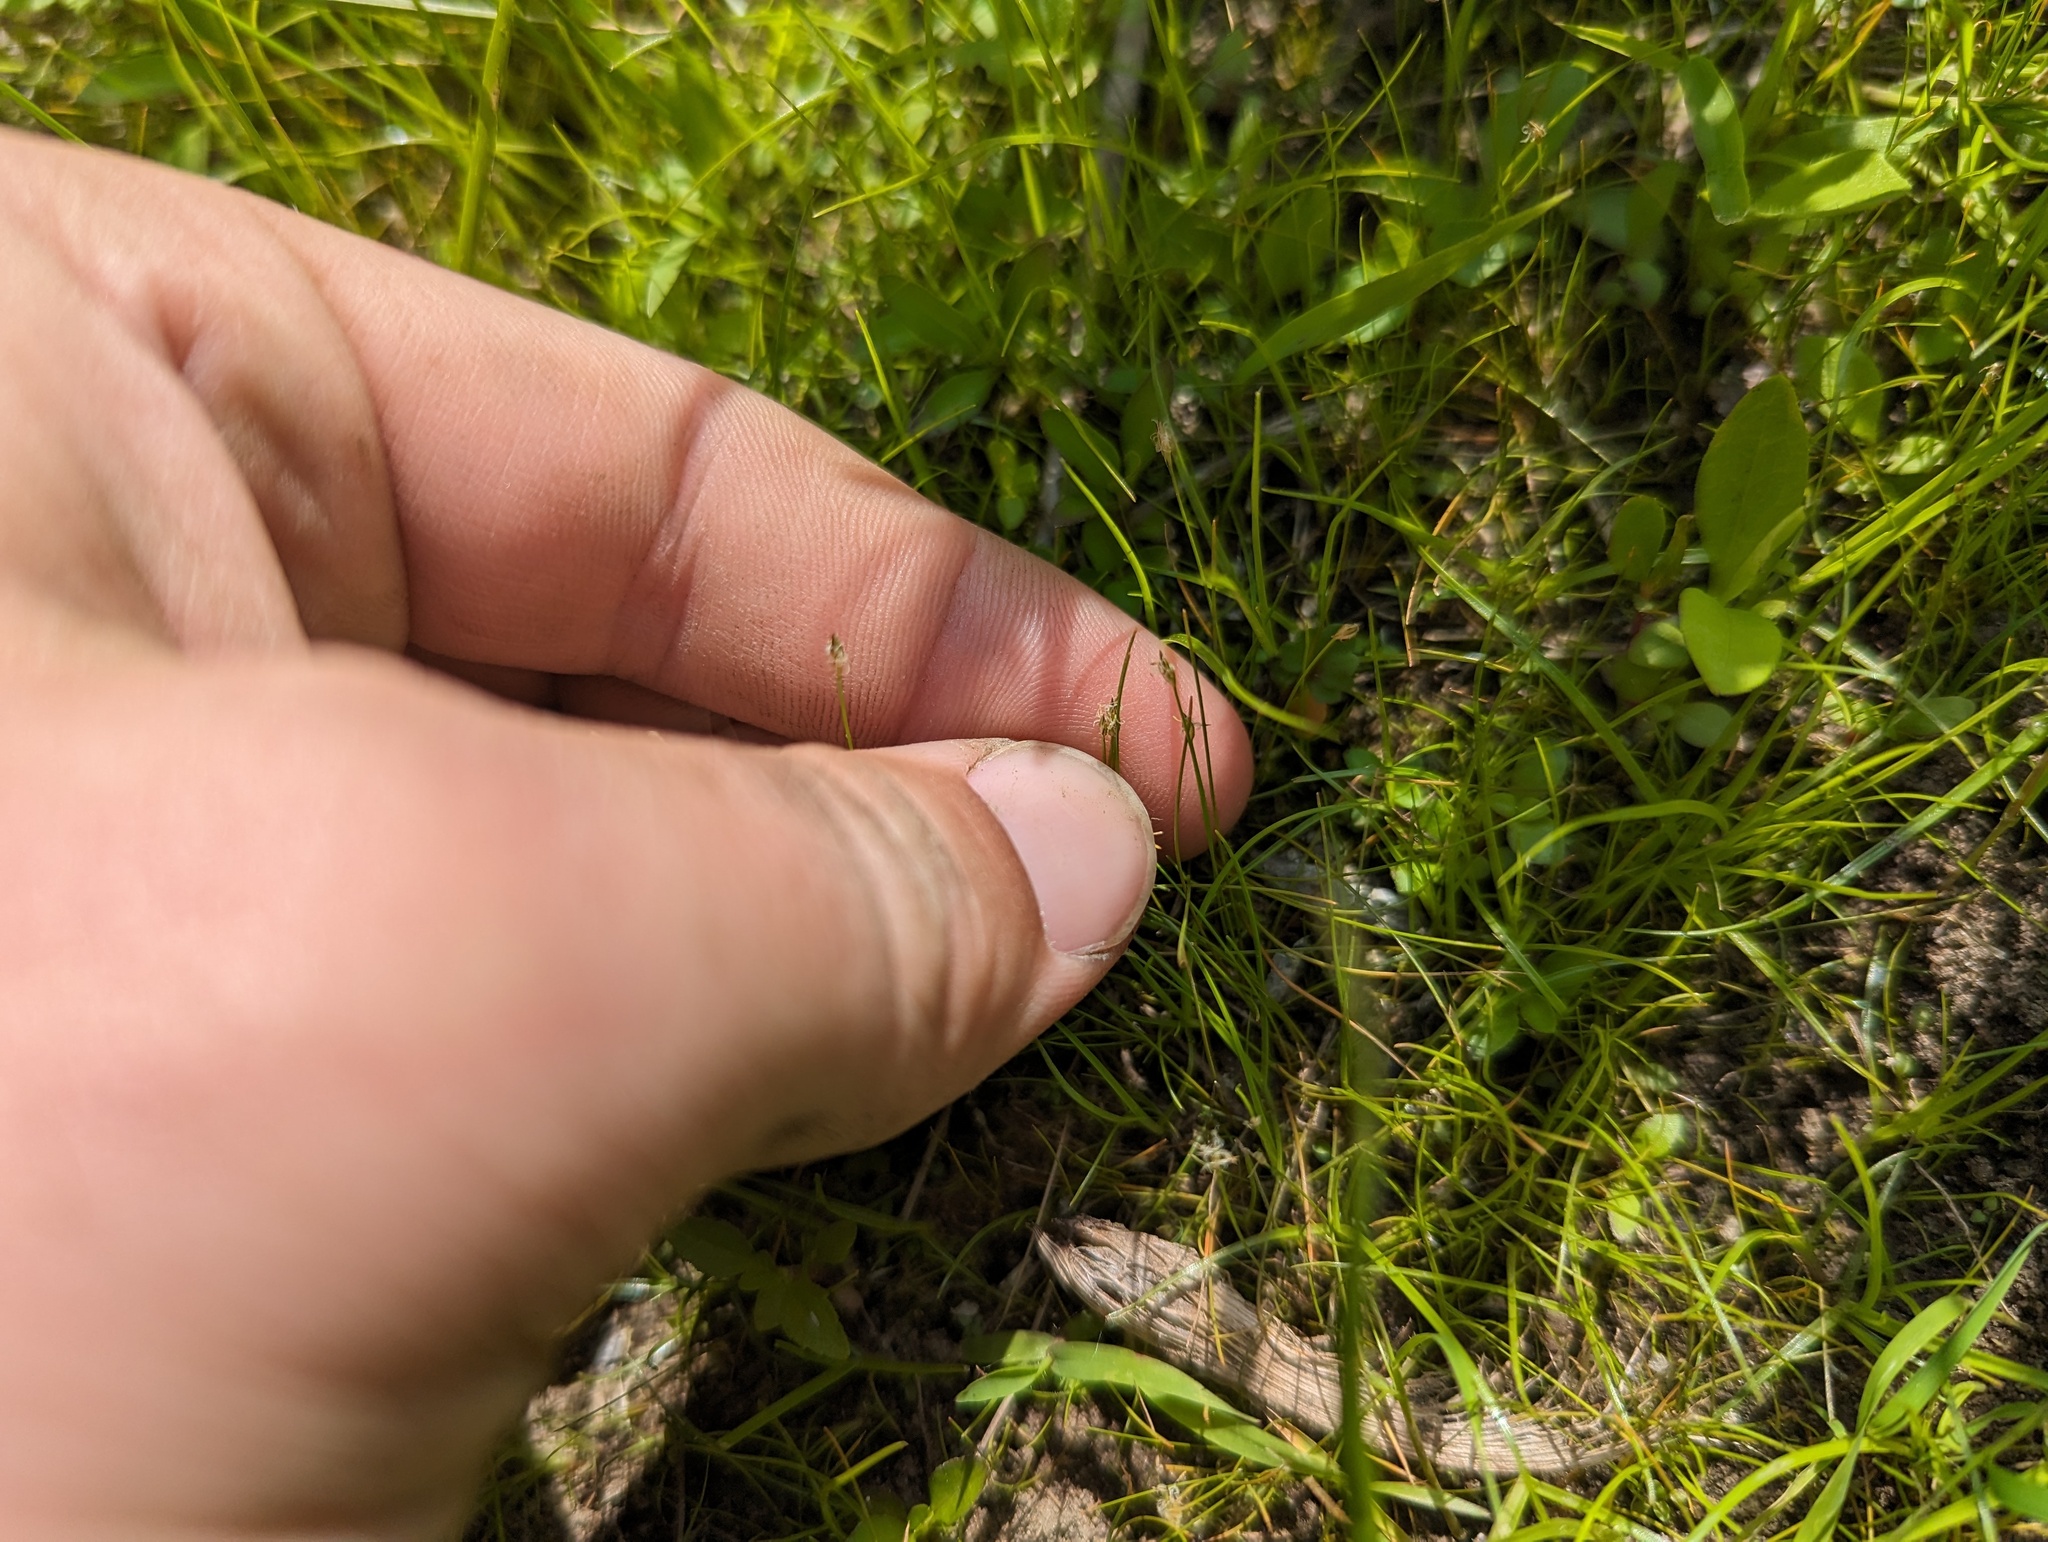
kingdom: Plantae
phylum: Tracheophyta
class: Liliopsida
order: Poales
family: Cyperaceae
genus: Eleocharis
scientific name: Eleocharis acicularis
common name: Needle spike-rush
